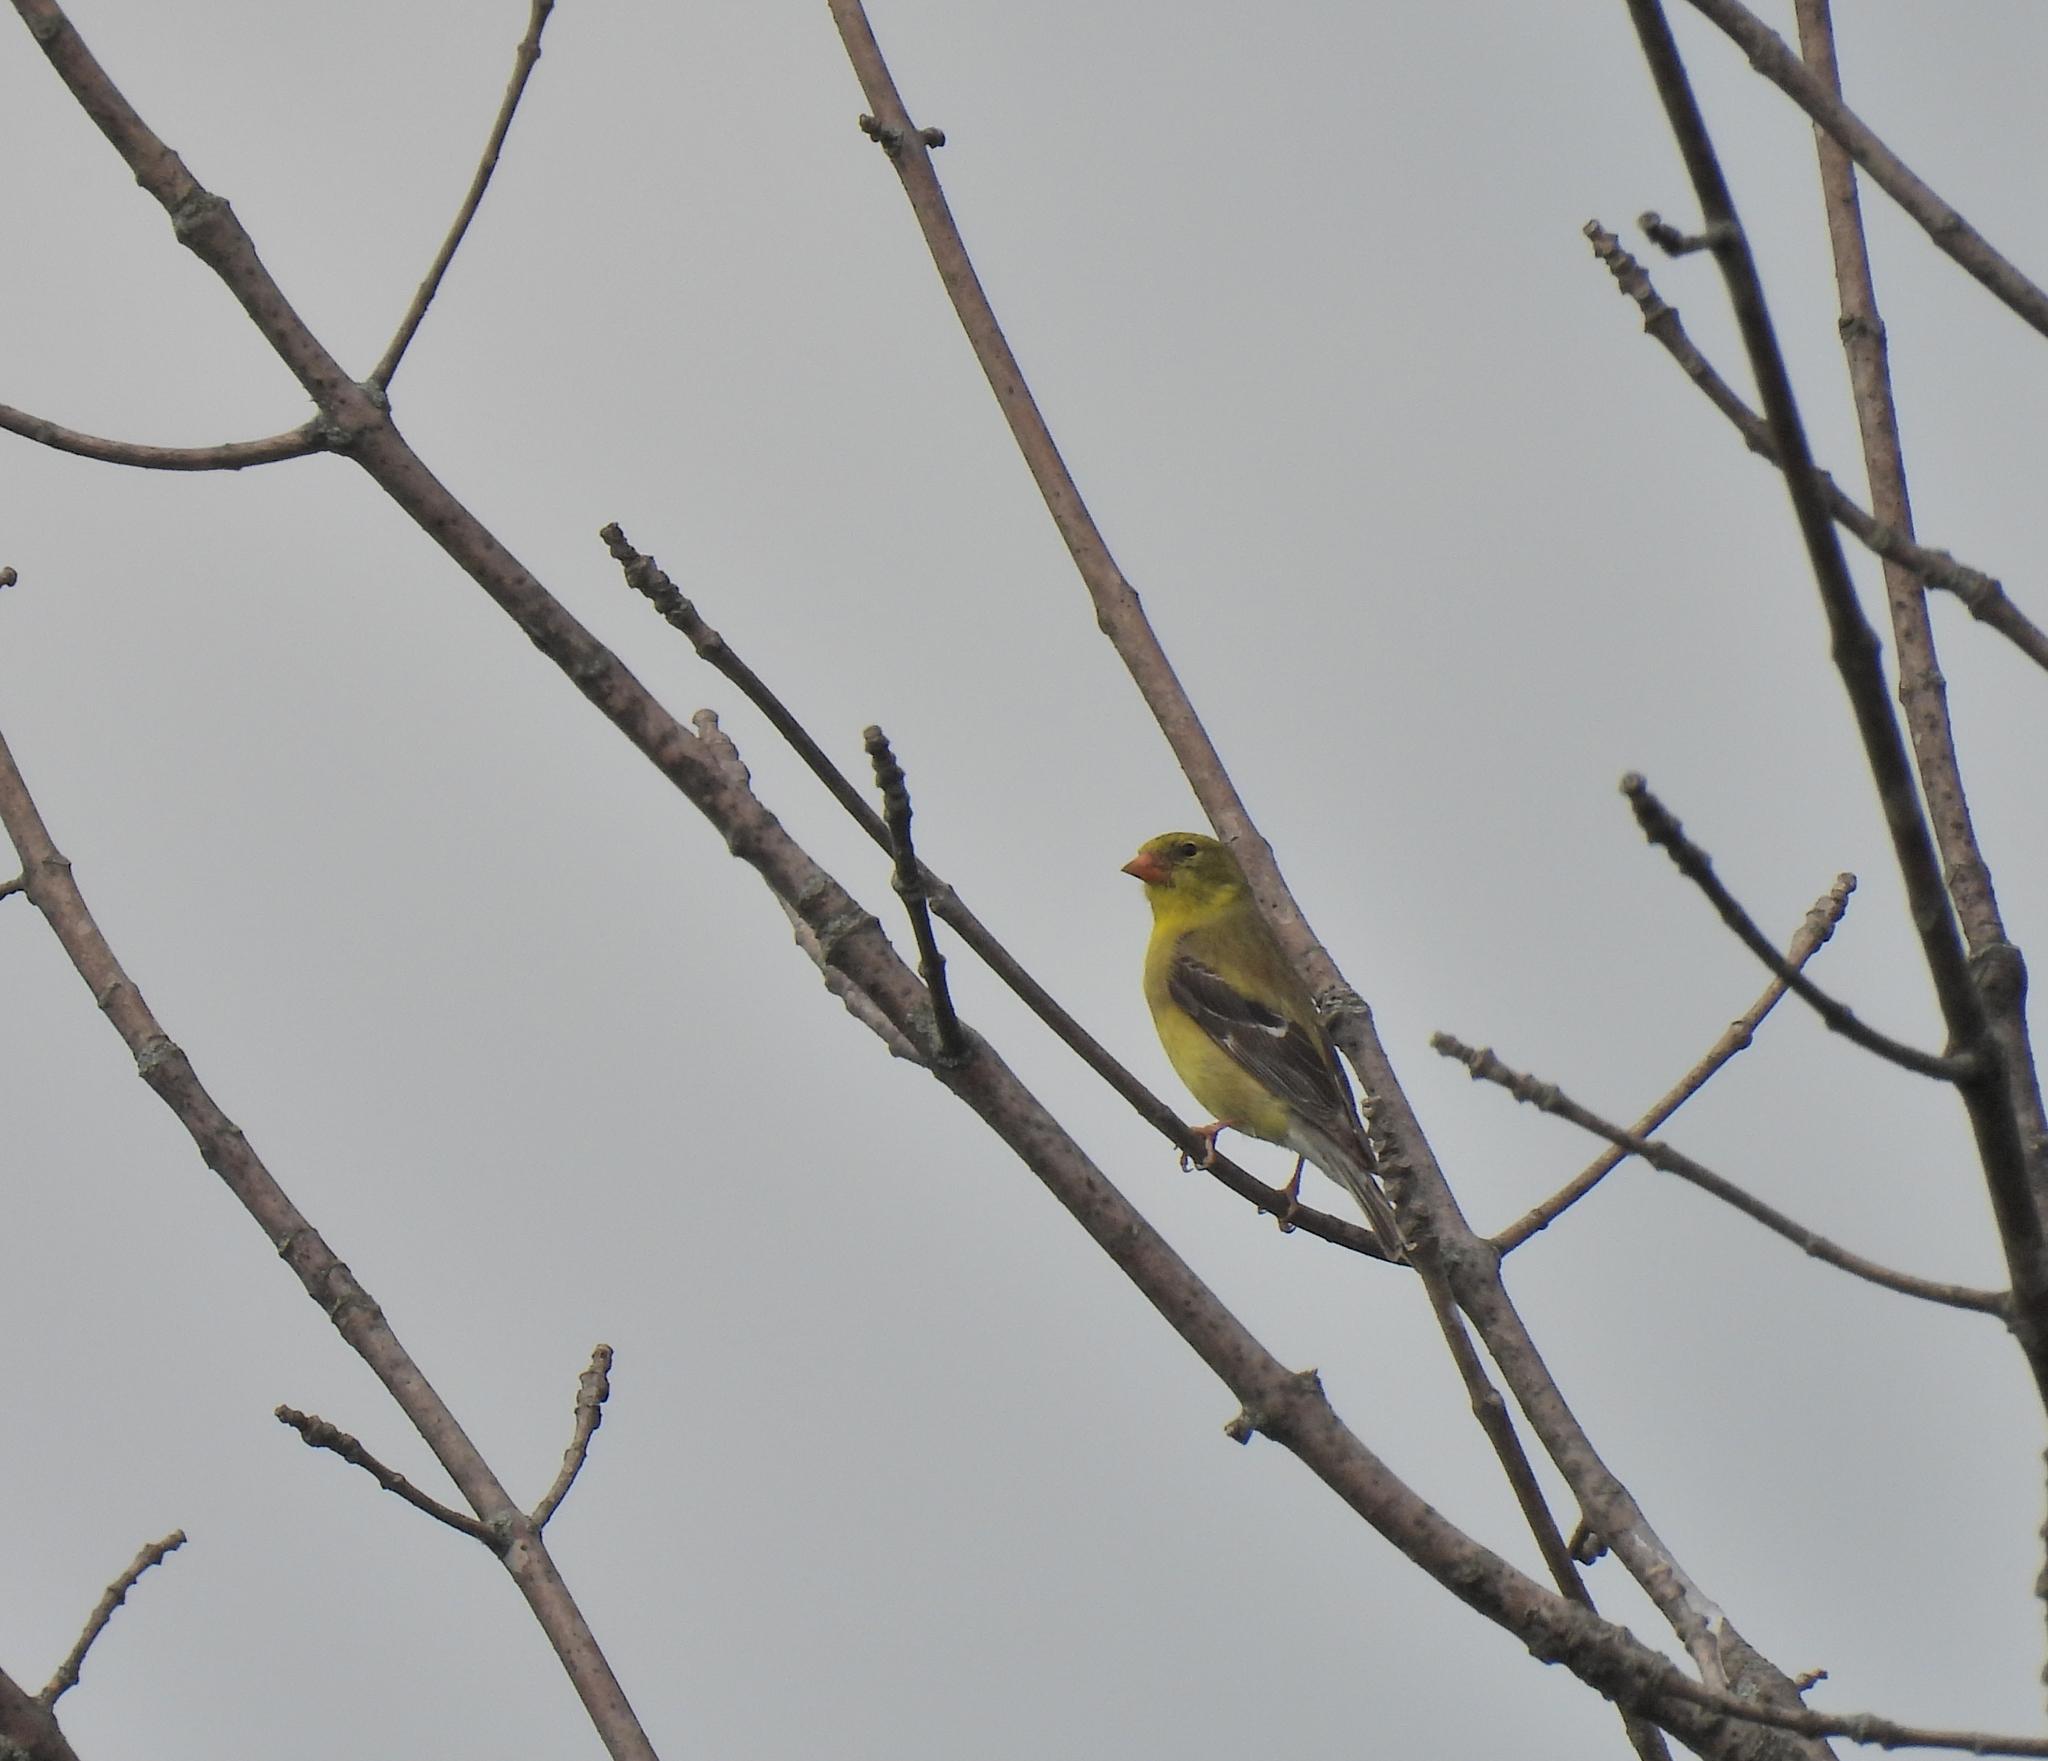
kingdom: Animalia
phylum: Chordata
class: Aves
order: Passeriformes
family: Fringillidae
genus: Spinus
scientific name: Spinus tristis
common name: American goldfinch
